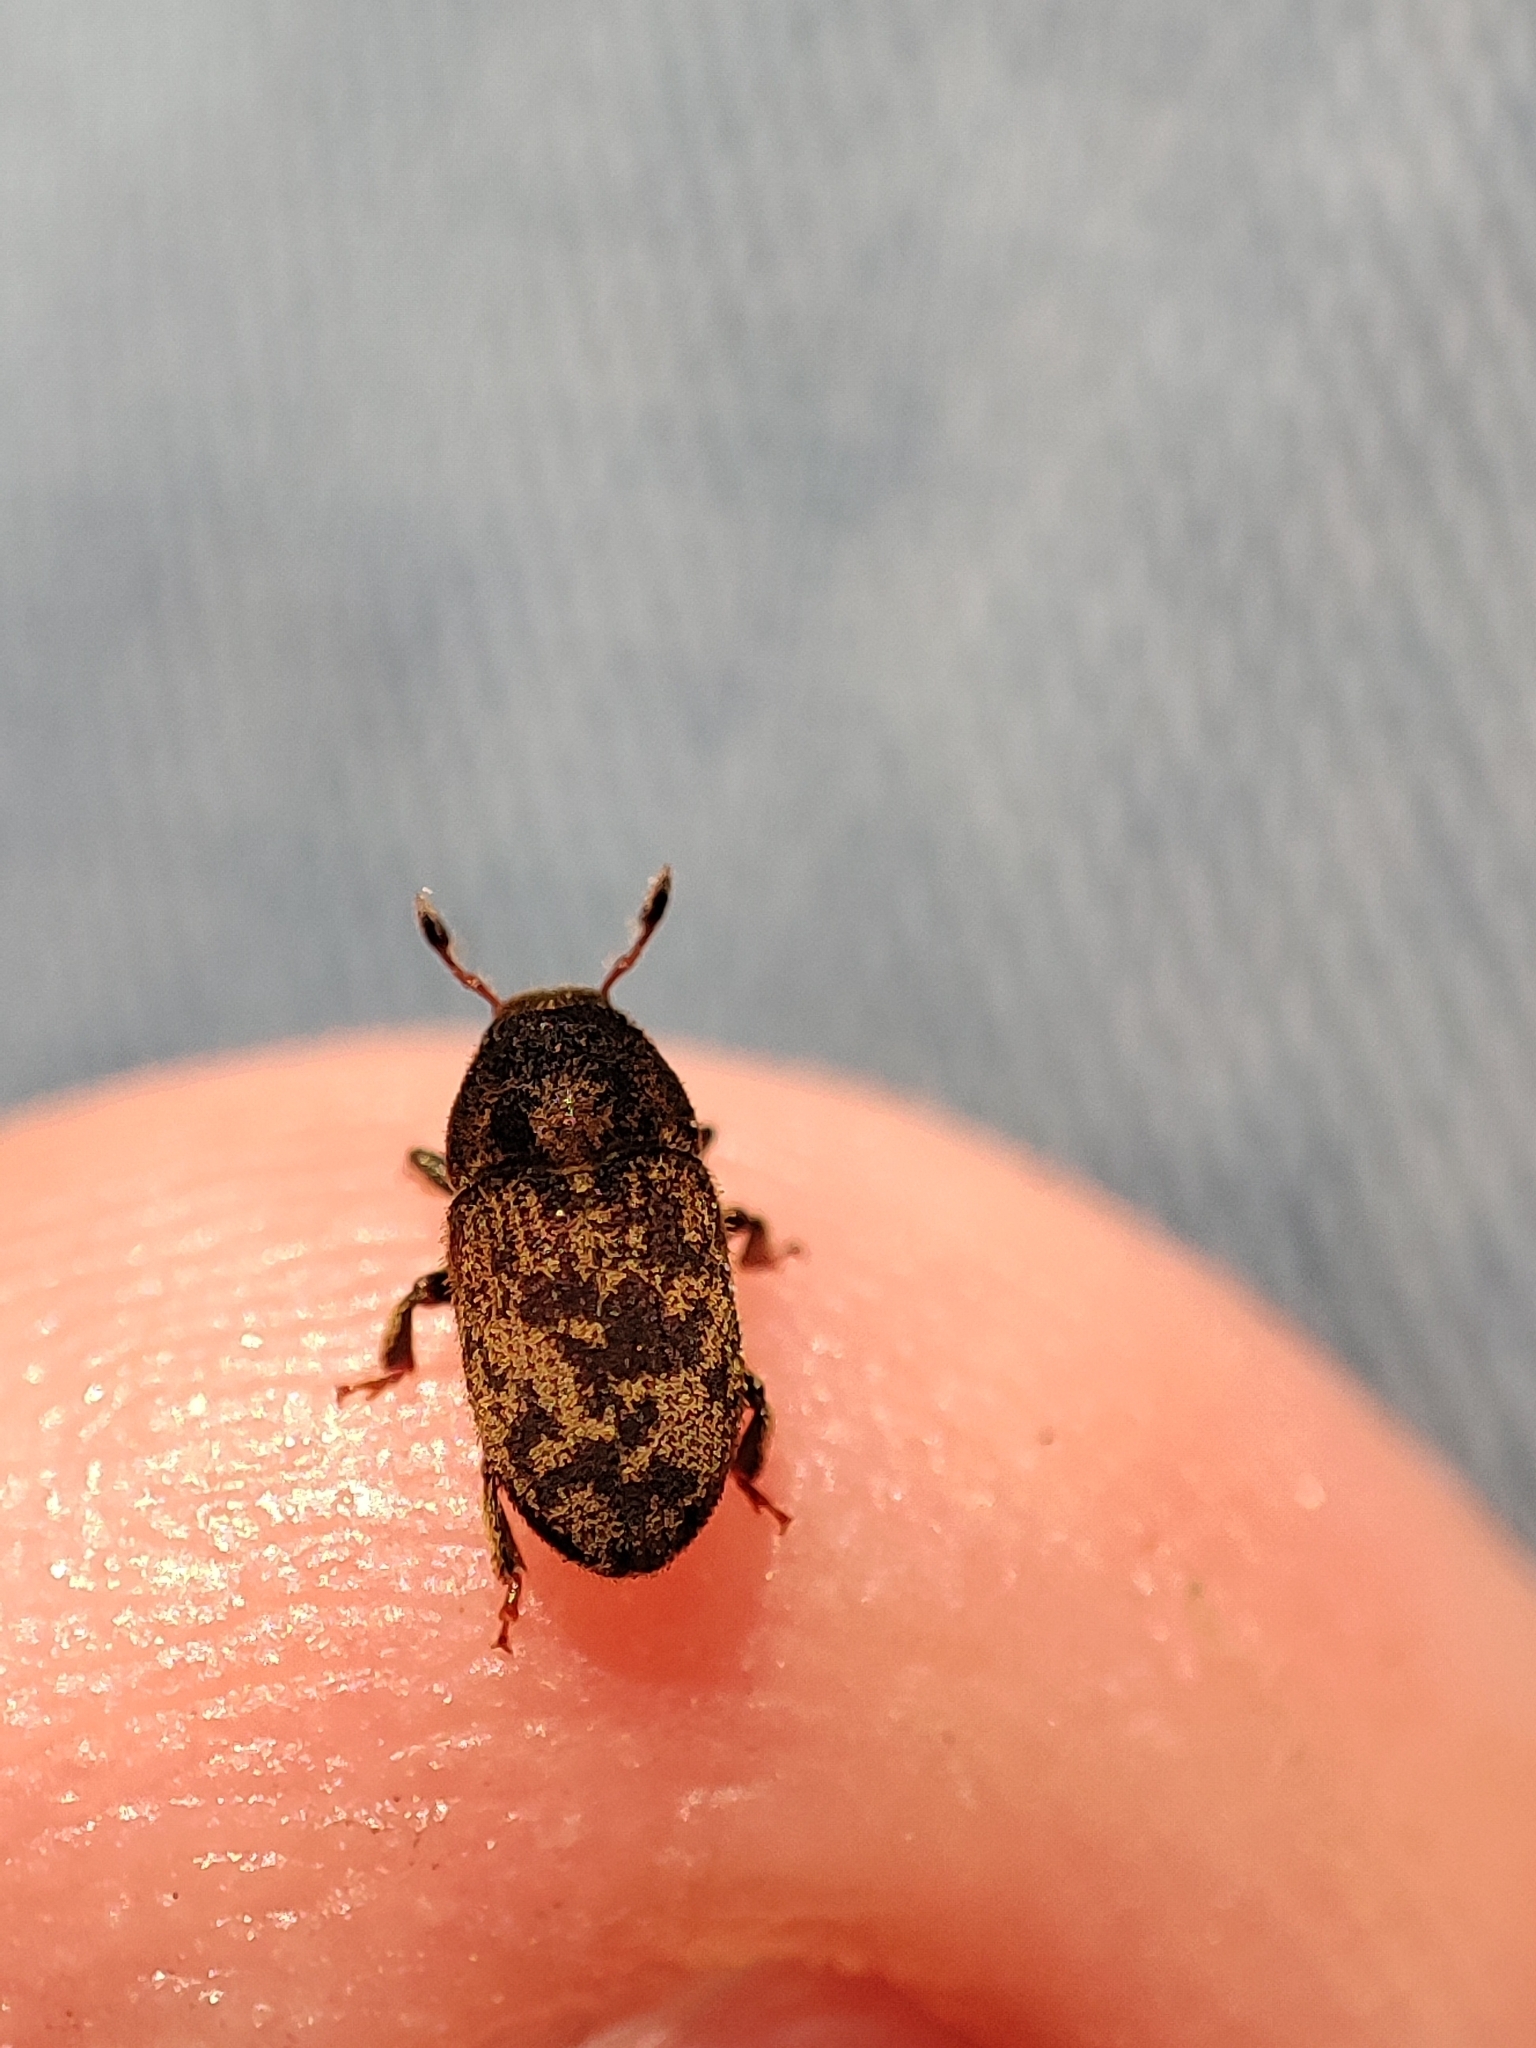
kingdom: Animalia
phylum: Arthropoda
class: Insecta
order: Coleoptera
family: Curculionidae
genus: Hylesinus
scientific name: Hylesinus varius
